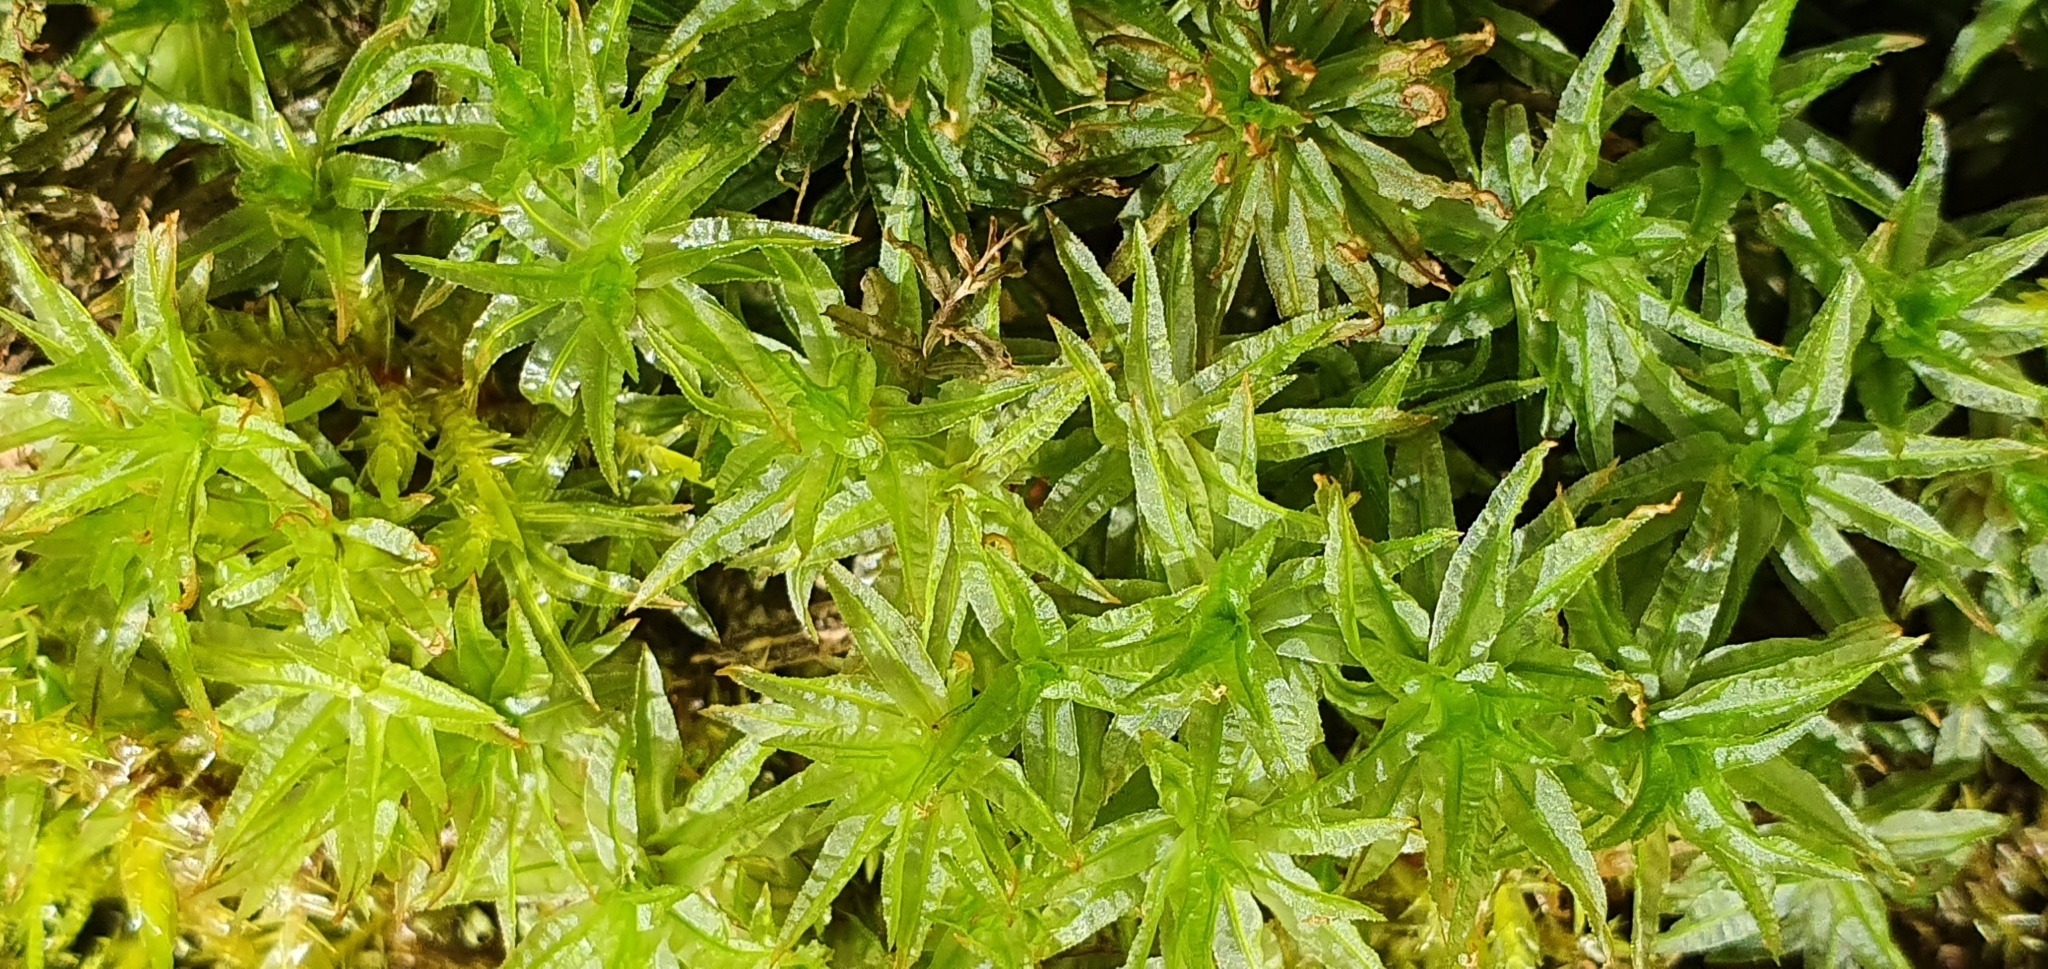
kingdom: Plantae
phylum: Bryophyta
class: Polytrichopsida
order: Polytrichales
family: Polytrichaceae
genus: Atrichum
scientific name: Atrichum undulatum
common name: Common smoothcap
